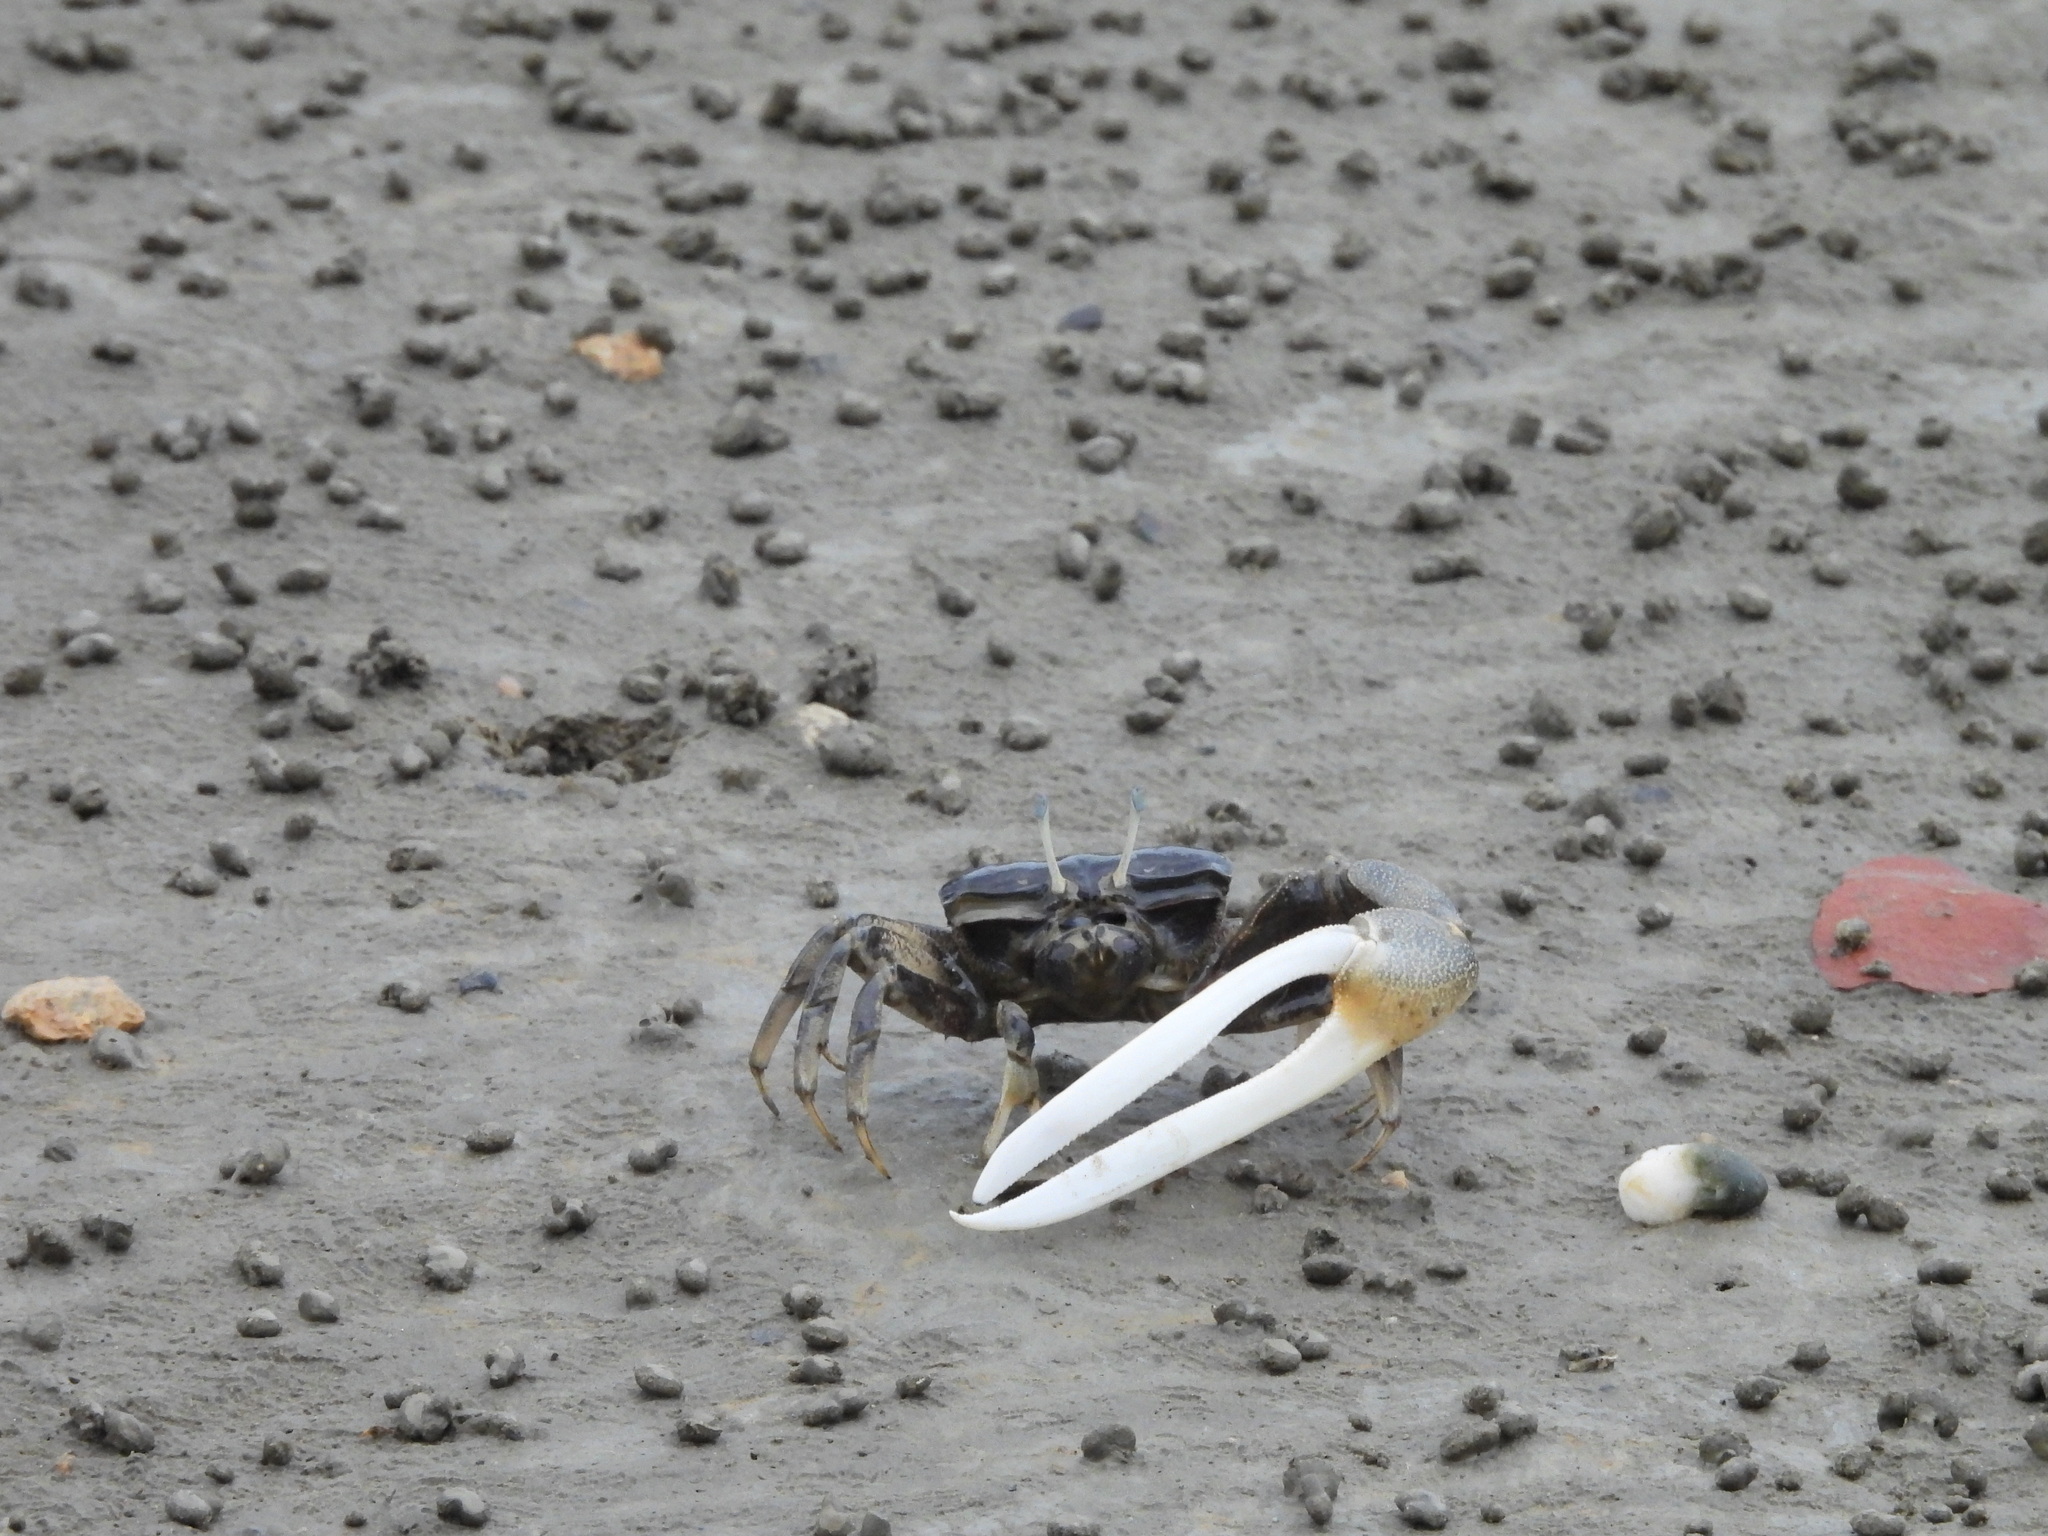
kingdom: Animalia
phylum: Arthropoda
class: Malacostraca
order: Decapoda
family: Ocypodidae
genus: Xeruca
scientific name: Xeruca formosensis
